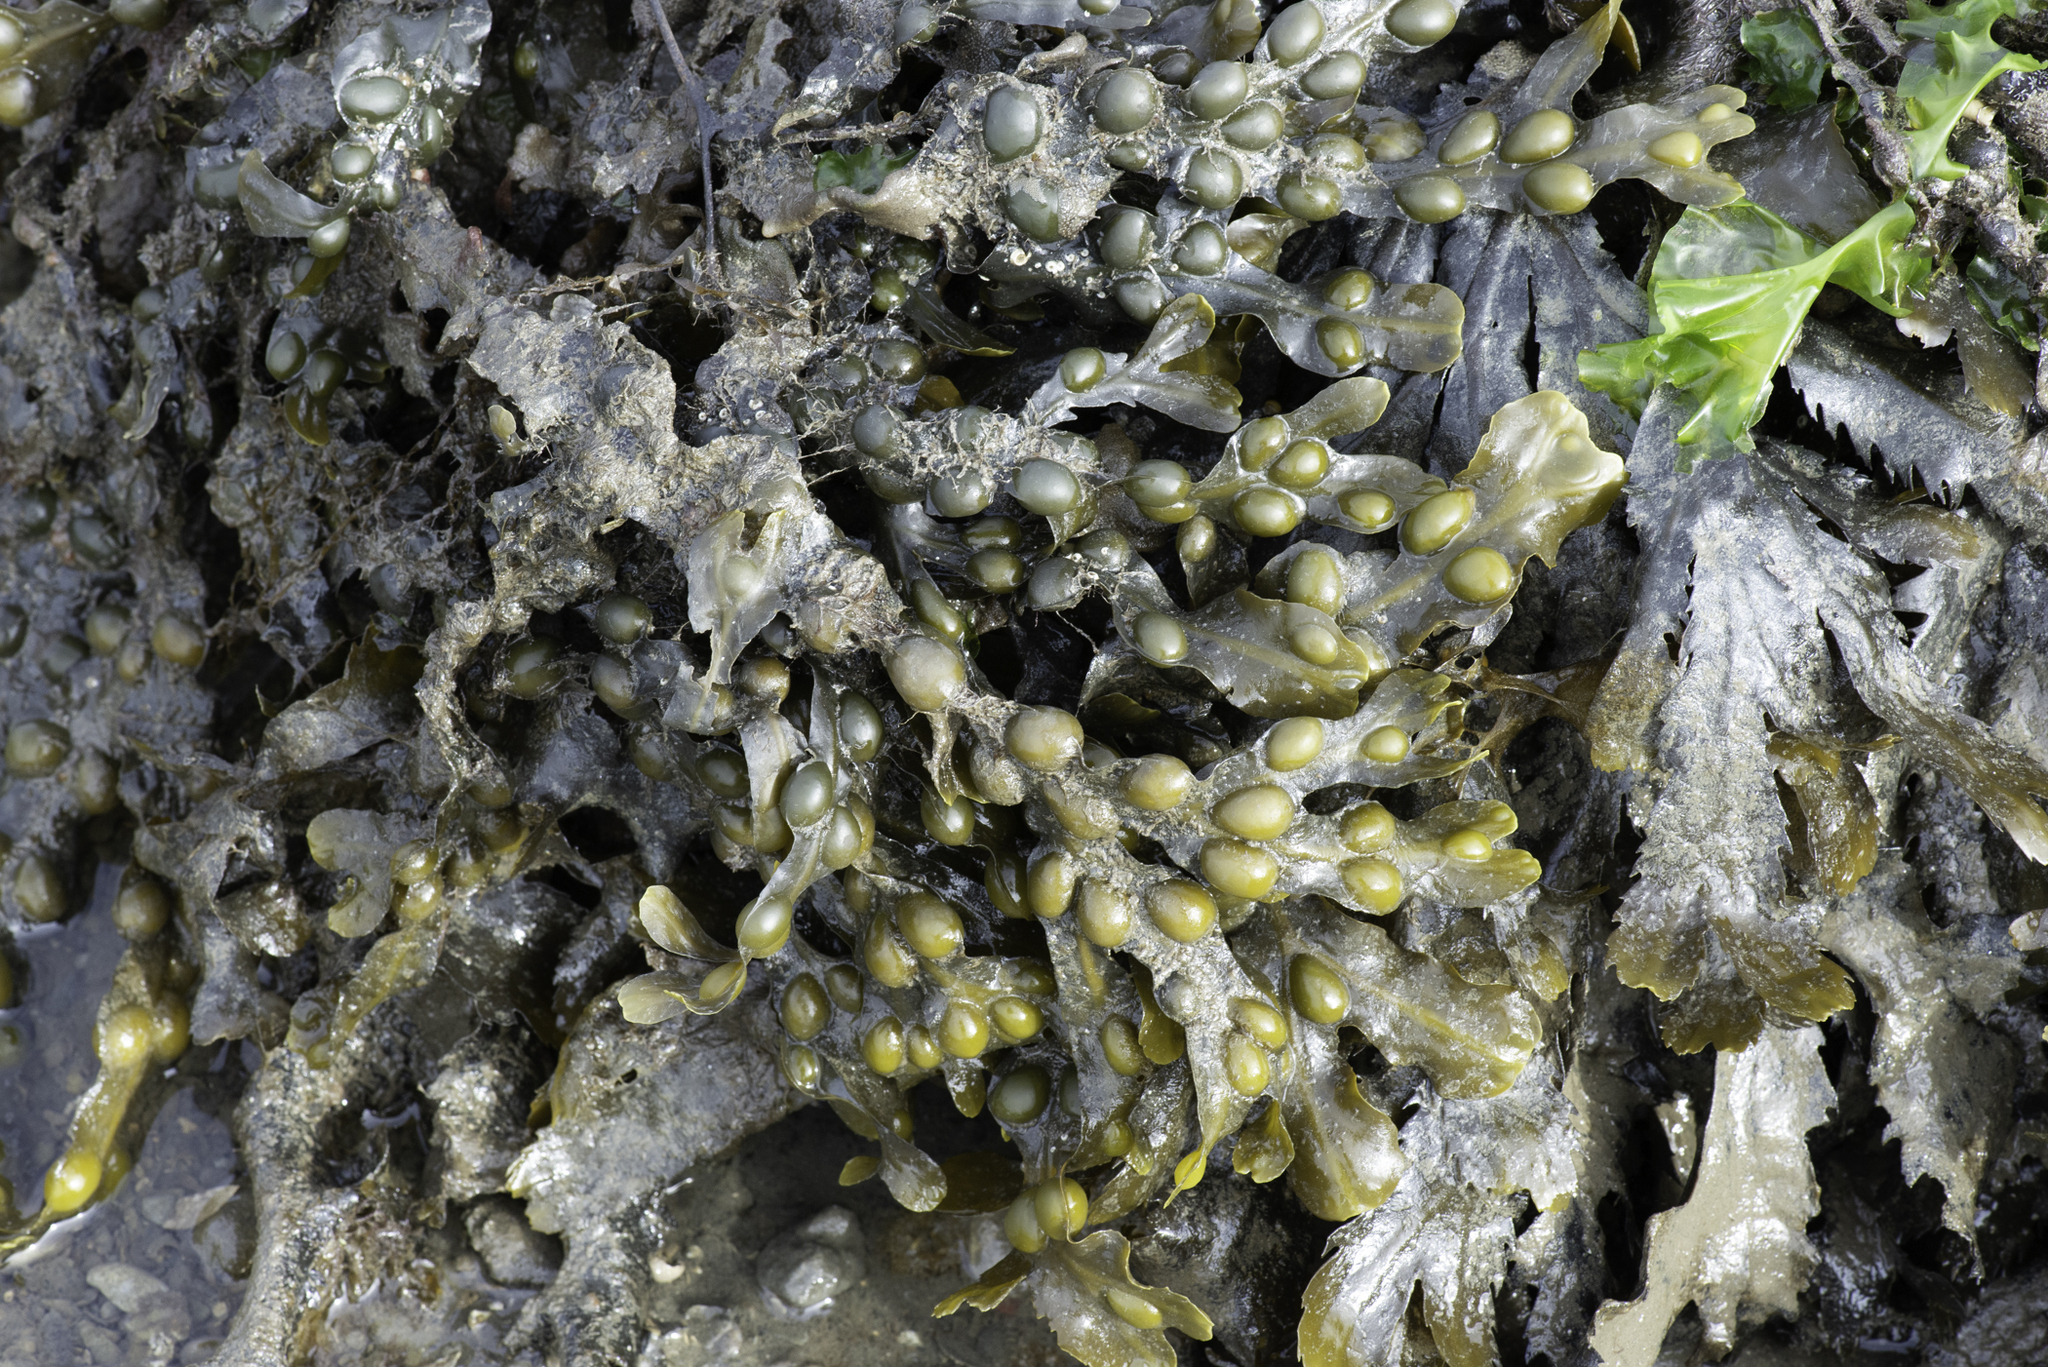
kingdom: Chromista
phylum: Ochrophyta
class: Phaeophyceae
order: Fucales
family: Fucaceae
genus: Fucus
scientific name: Fucus vesiculosus
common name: Bladder wrack
